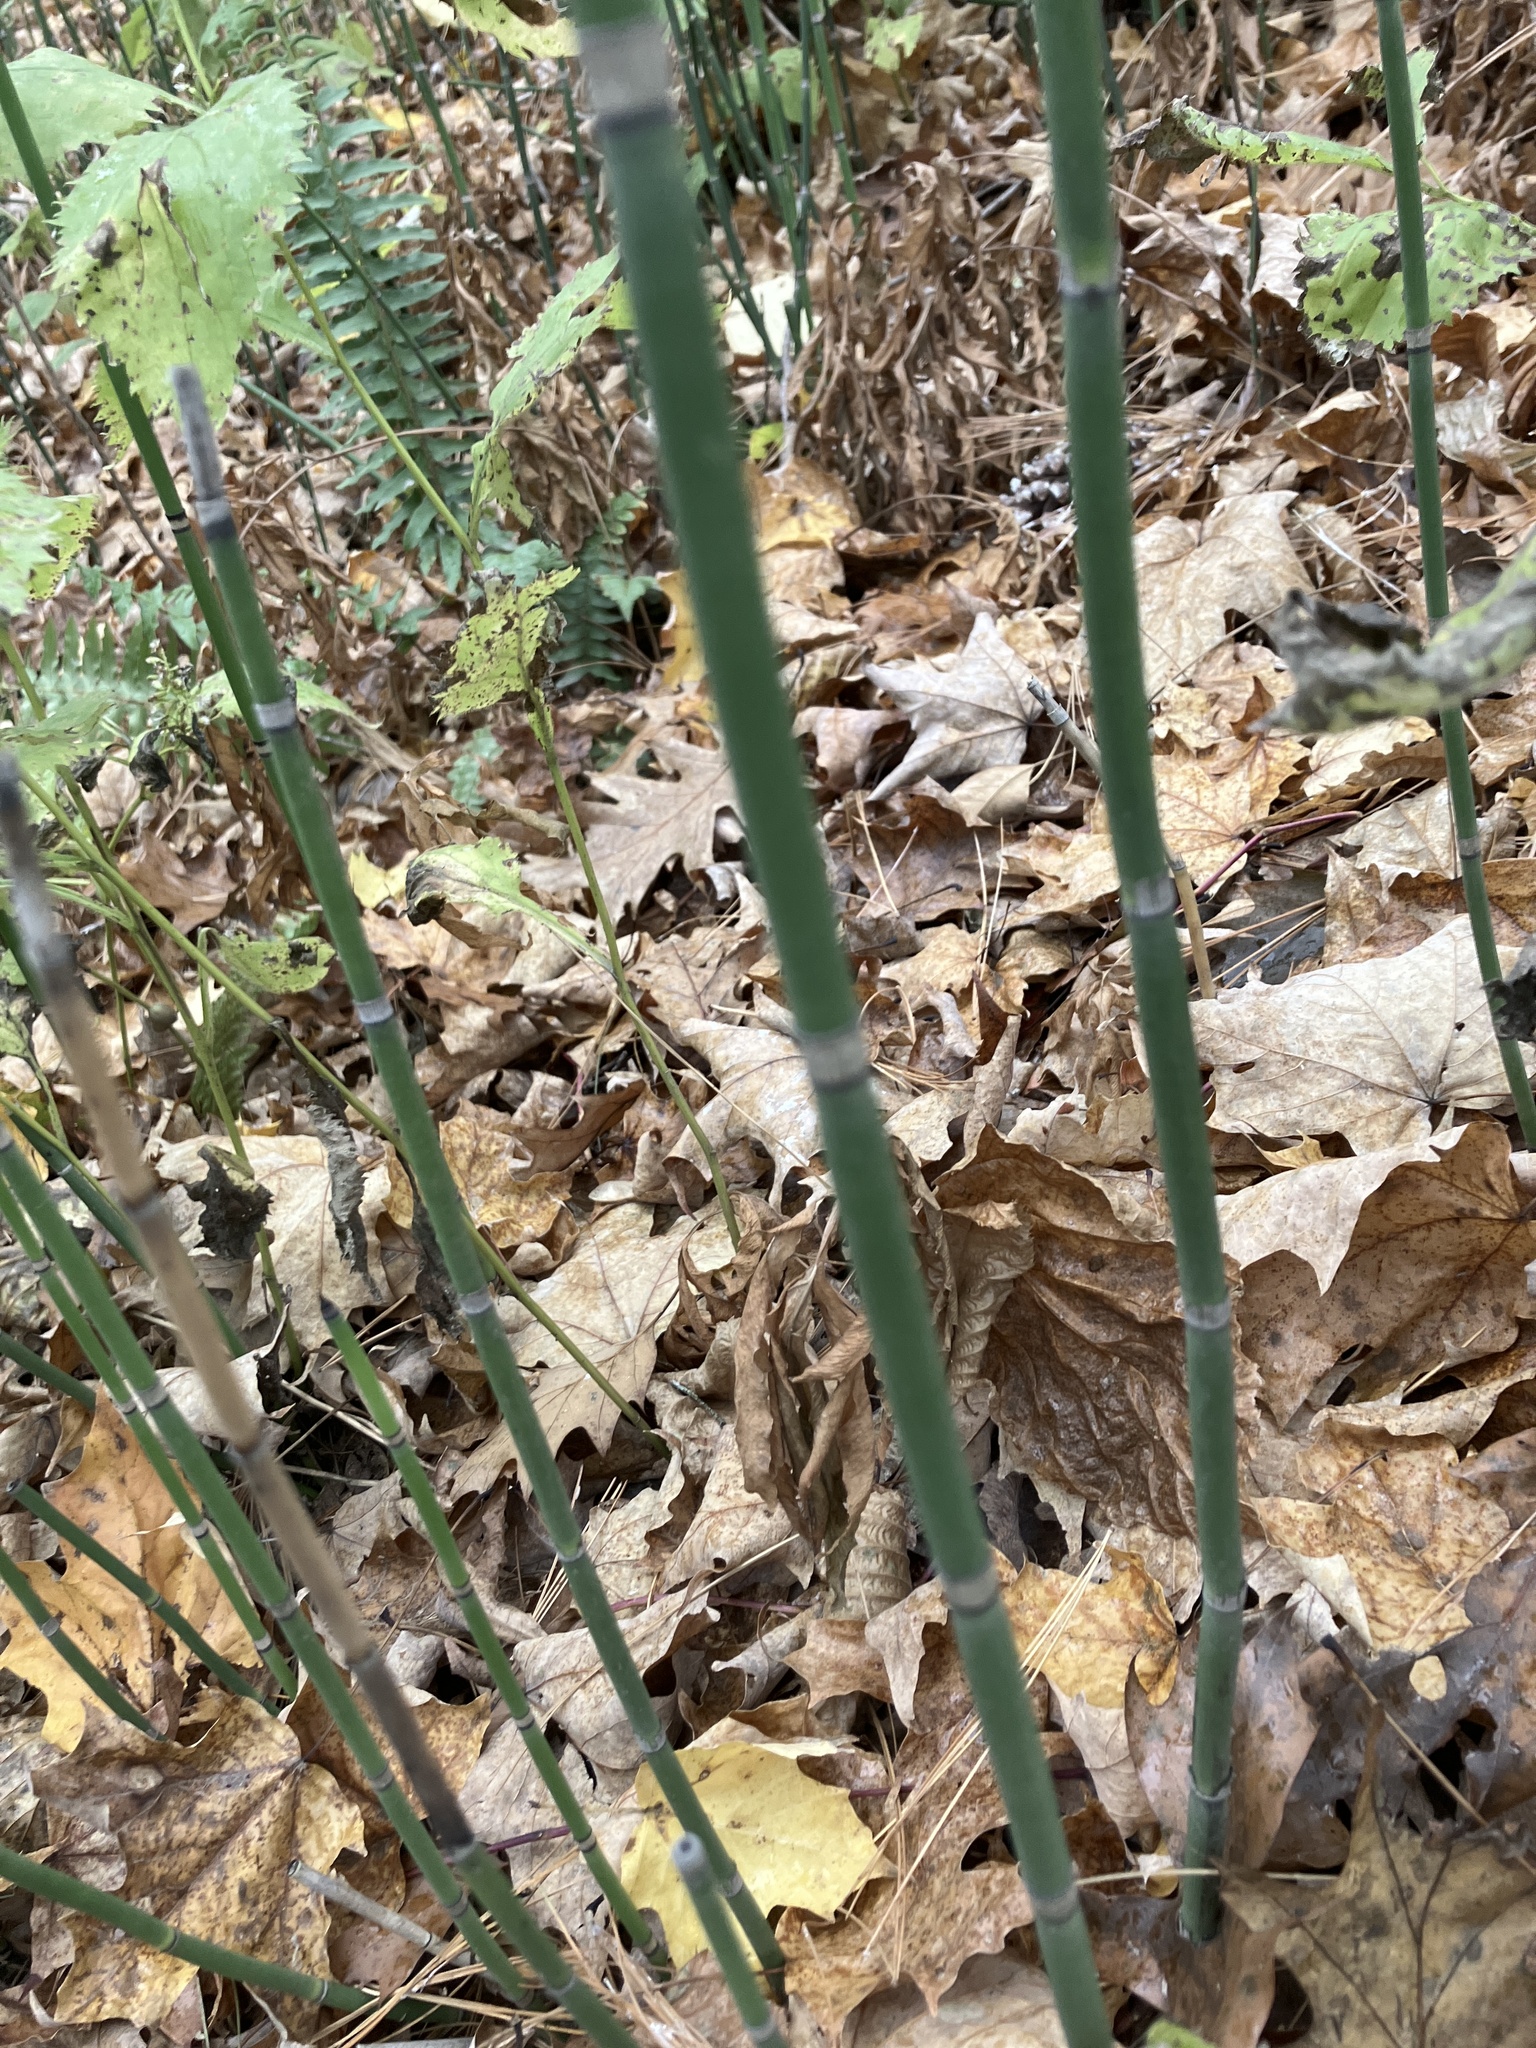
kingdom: Plantae
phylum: Tracheophyta
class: Polypodiopsida
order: Equisetales
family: Equisetaceae
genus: Equisetum
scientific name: Equisetum hyemale
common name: Rough horsetail
